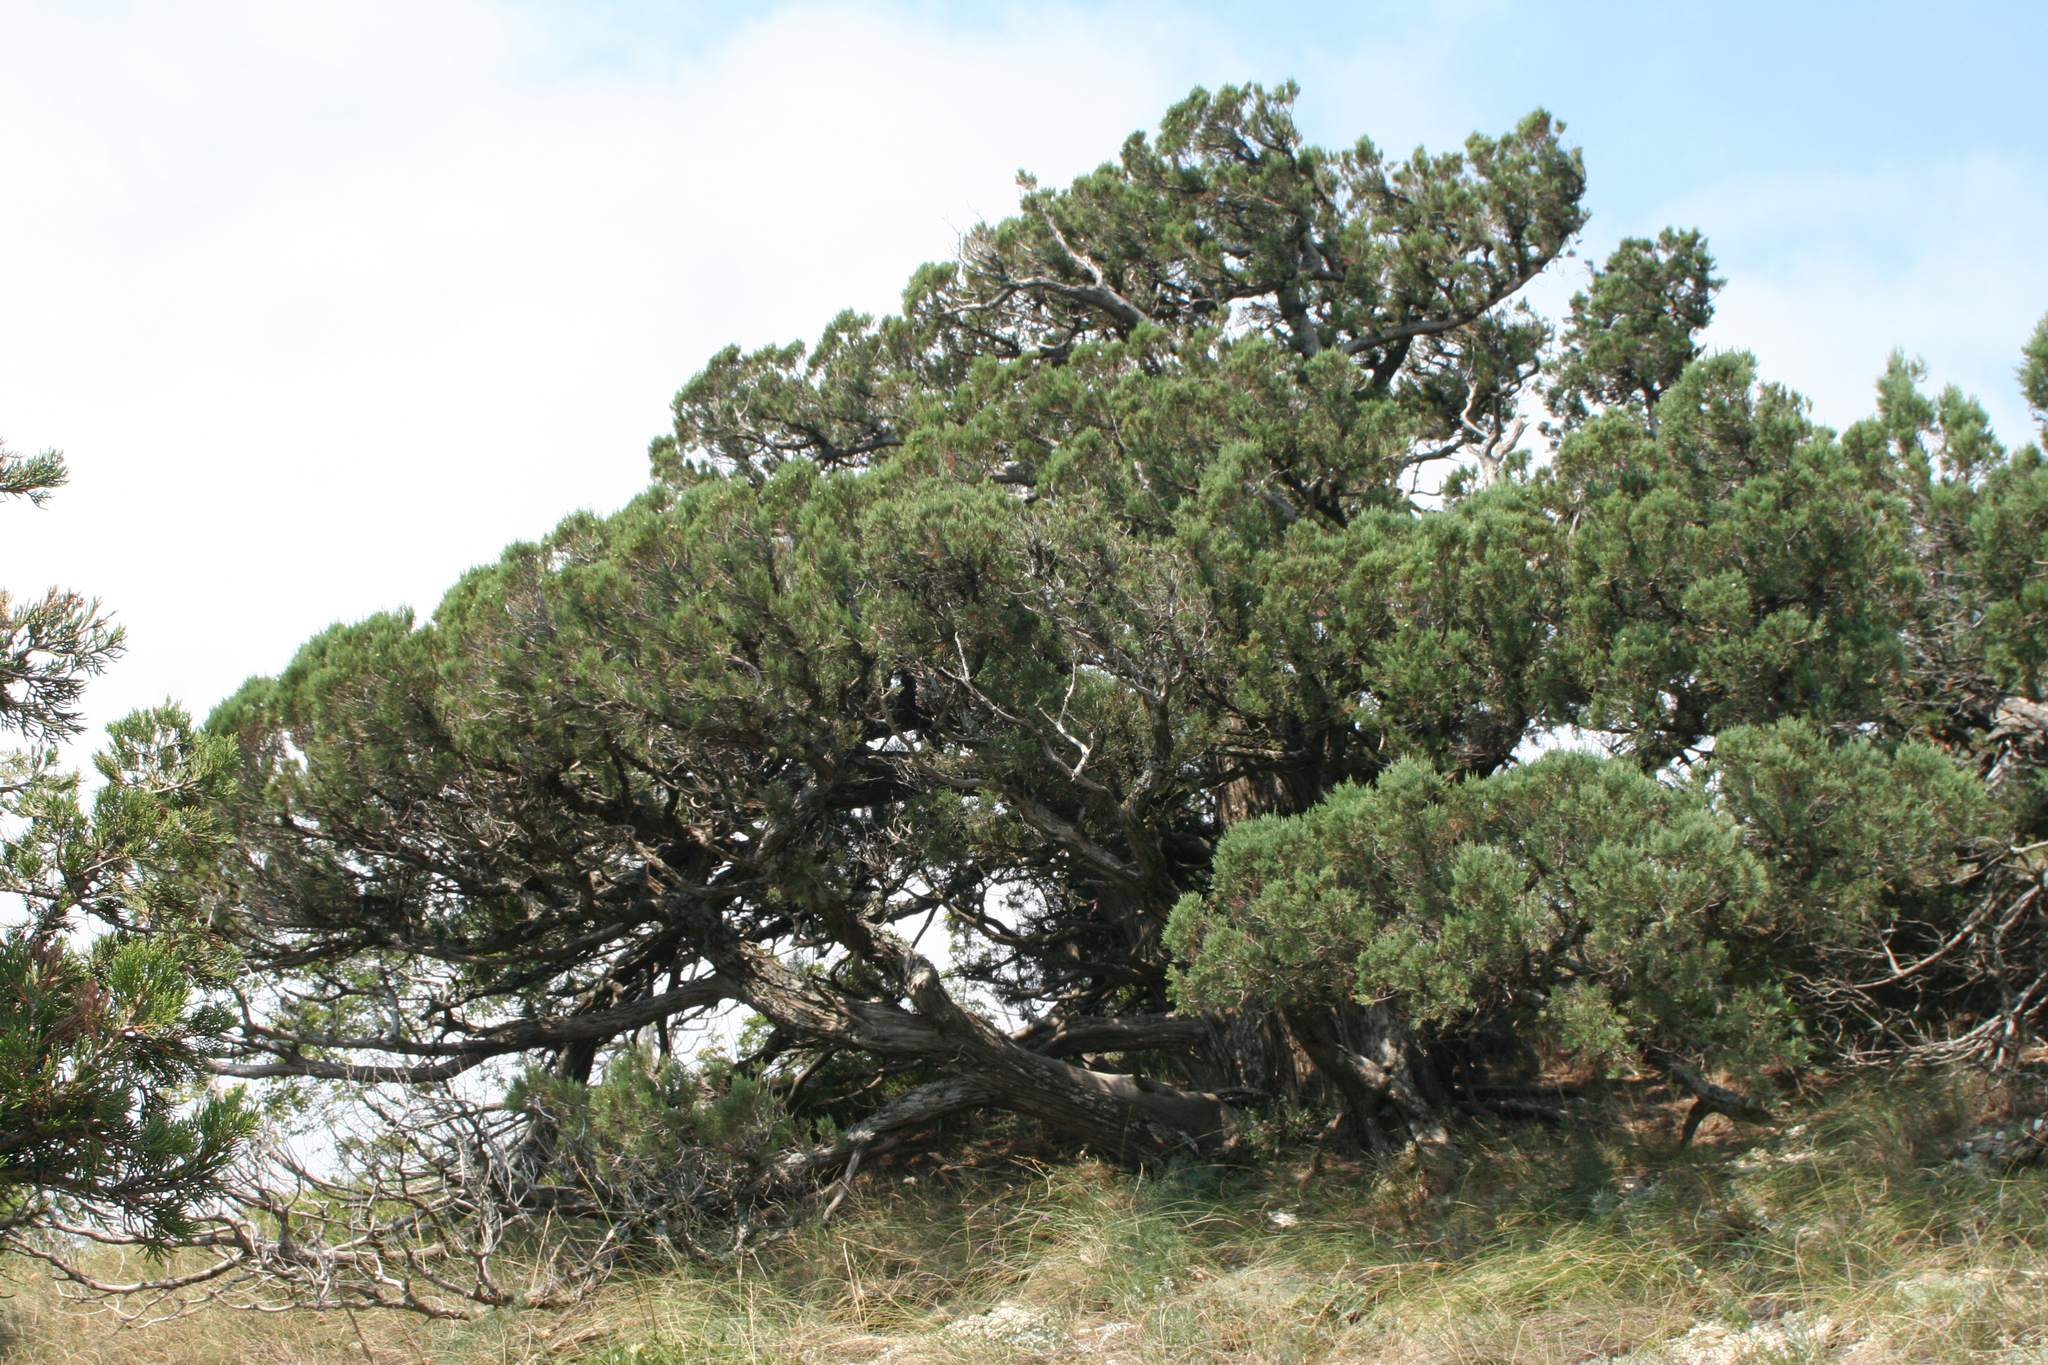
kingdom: Plantae
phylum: Tracheophyta
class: Pinopsida
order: Pinales
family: Cupressaceae
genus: Juniperus
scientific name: Juniperus excelsa
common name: Crimean juniper
